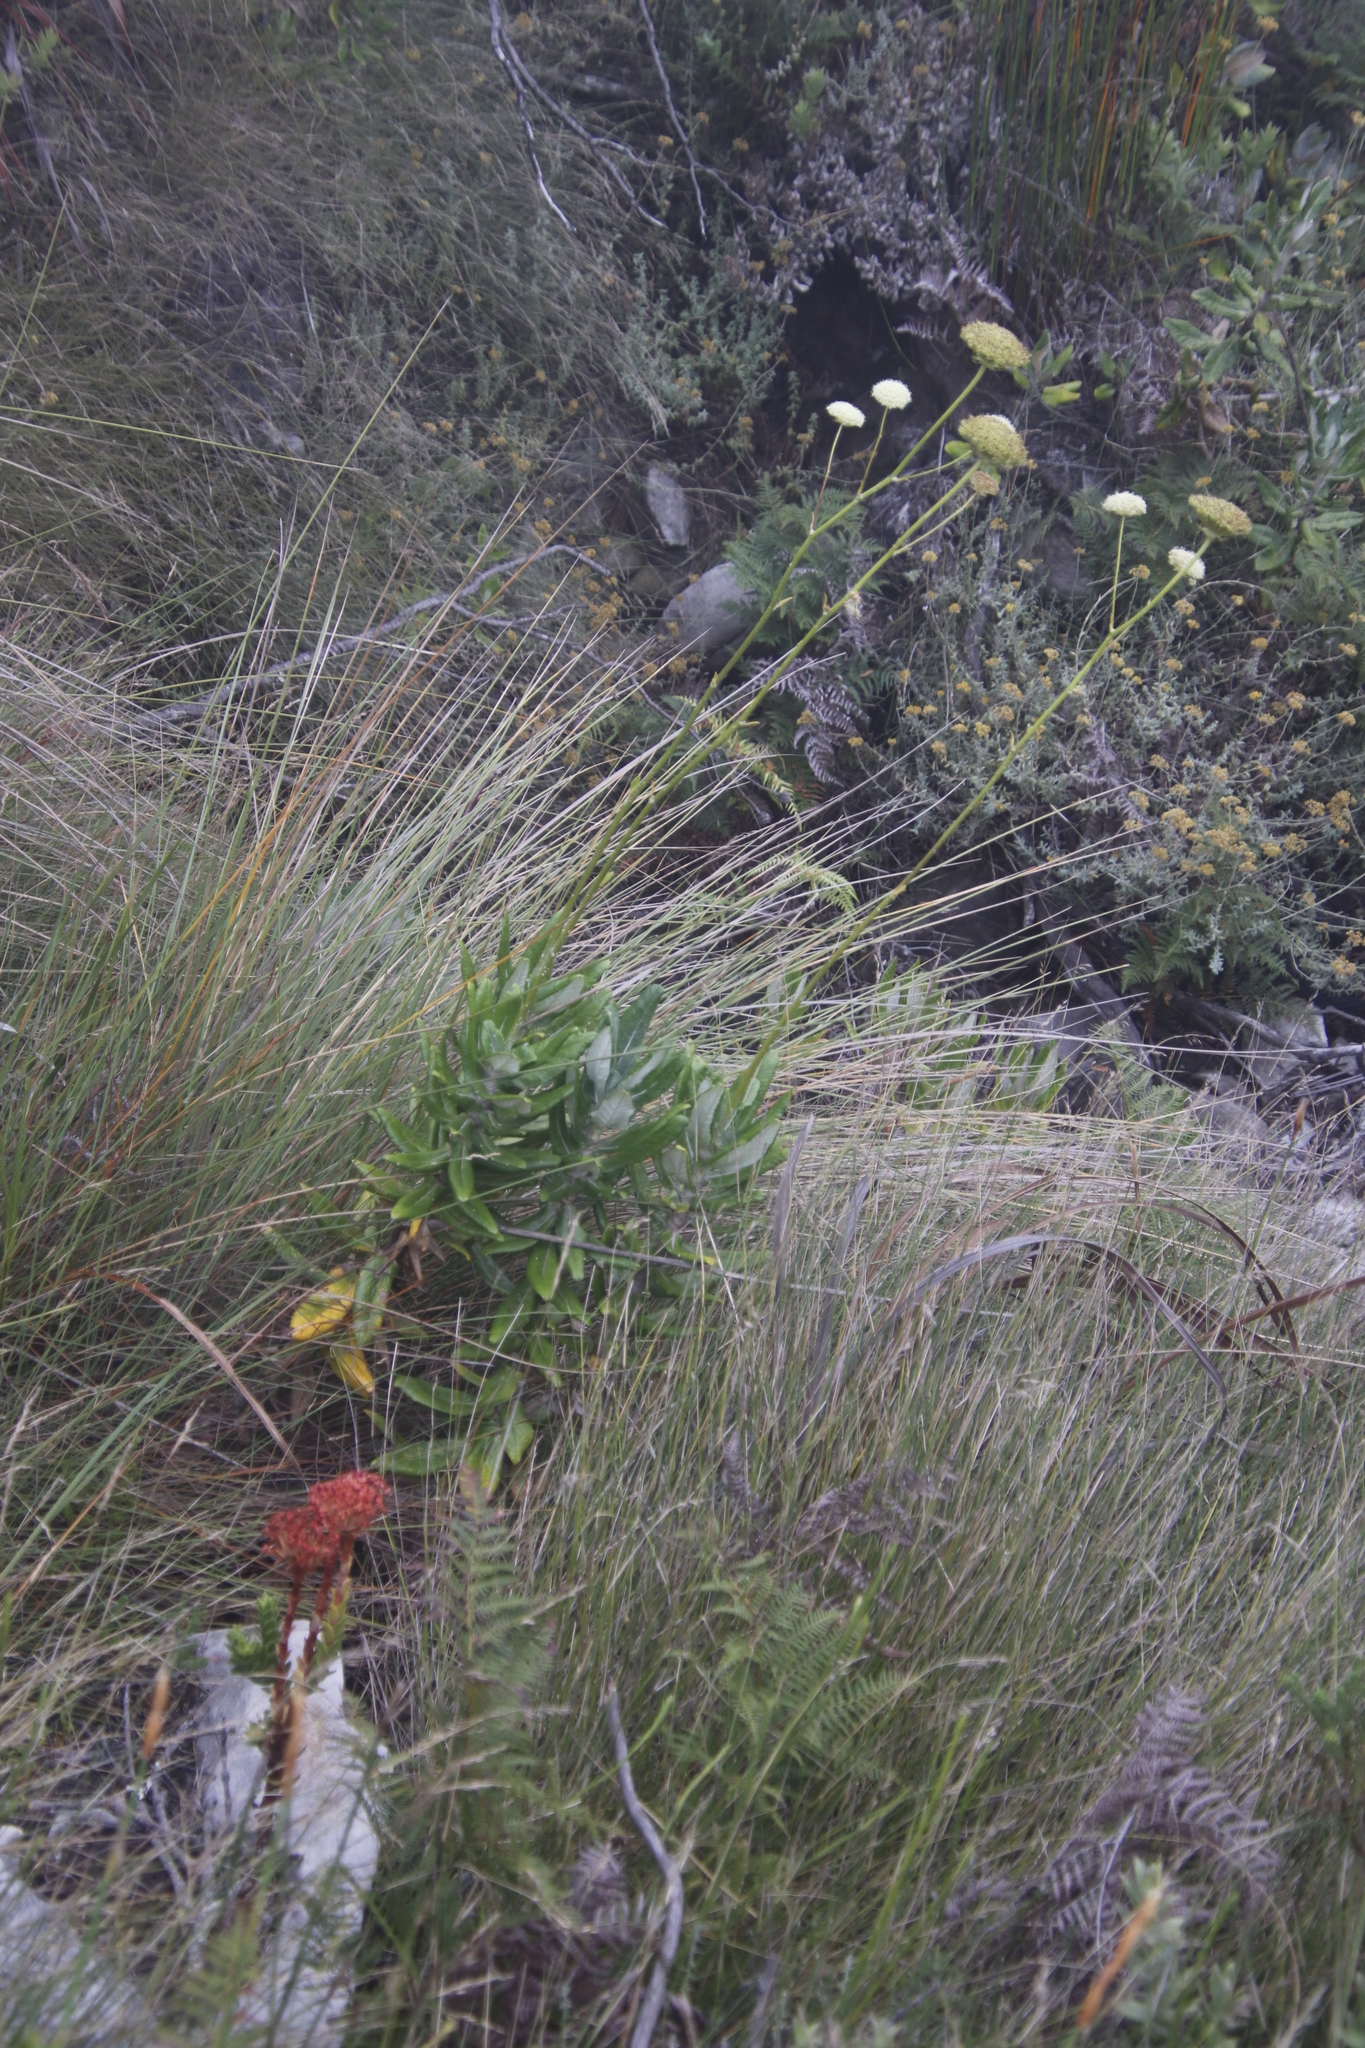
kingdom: Plantae
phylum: Tracheophyta
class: Magnoliopsida
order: Apiales
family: Apiaceae
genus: Hermas
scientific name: Hermas villosa
